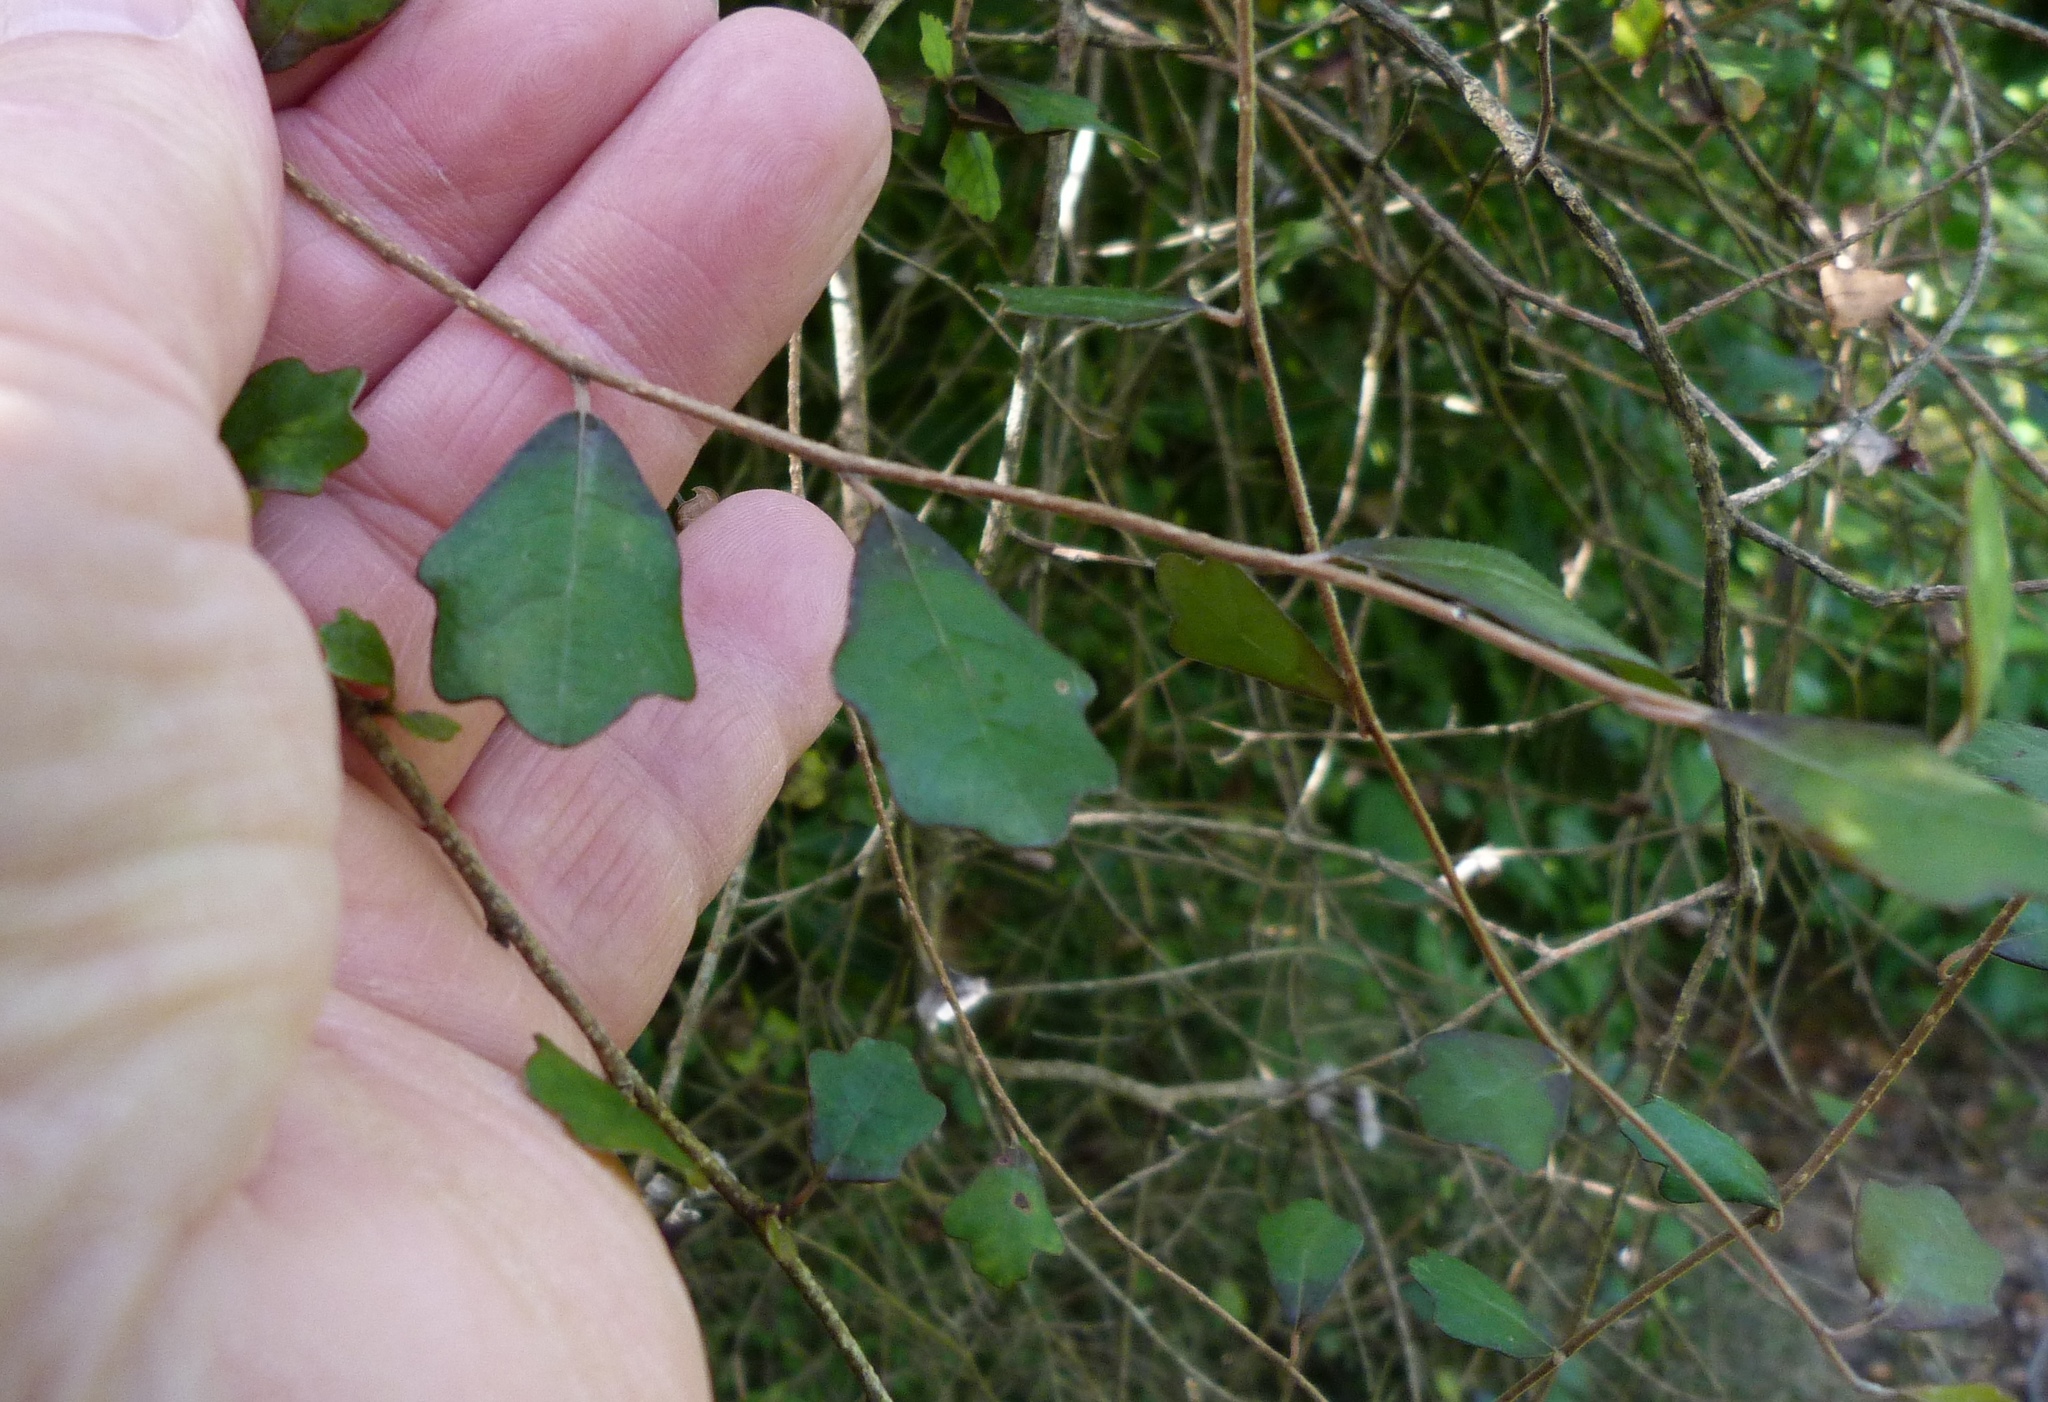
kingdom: Plantae
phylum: Tracheophyta
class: Magnoliopsida
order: Apiales
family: Pennantiaceae
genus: Pennantia
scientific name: Pennantia corymbosa
